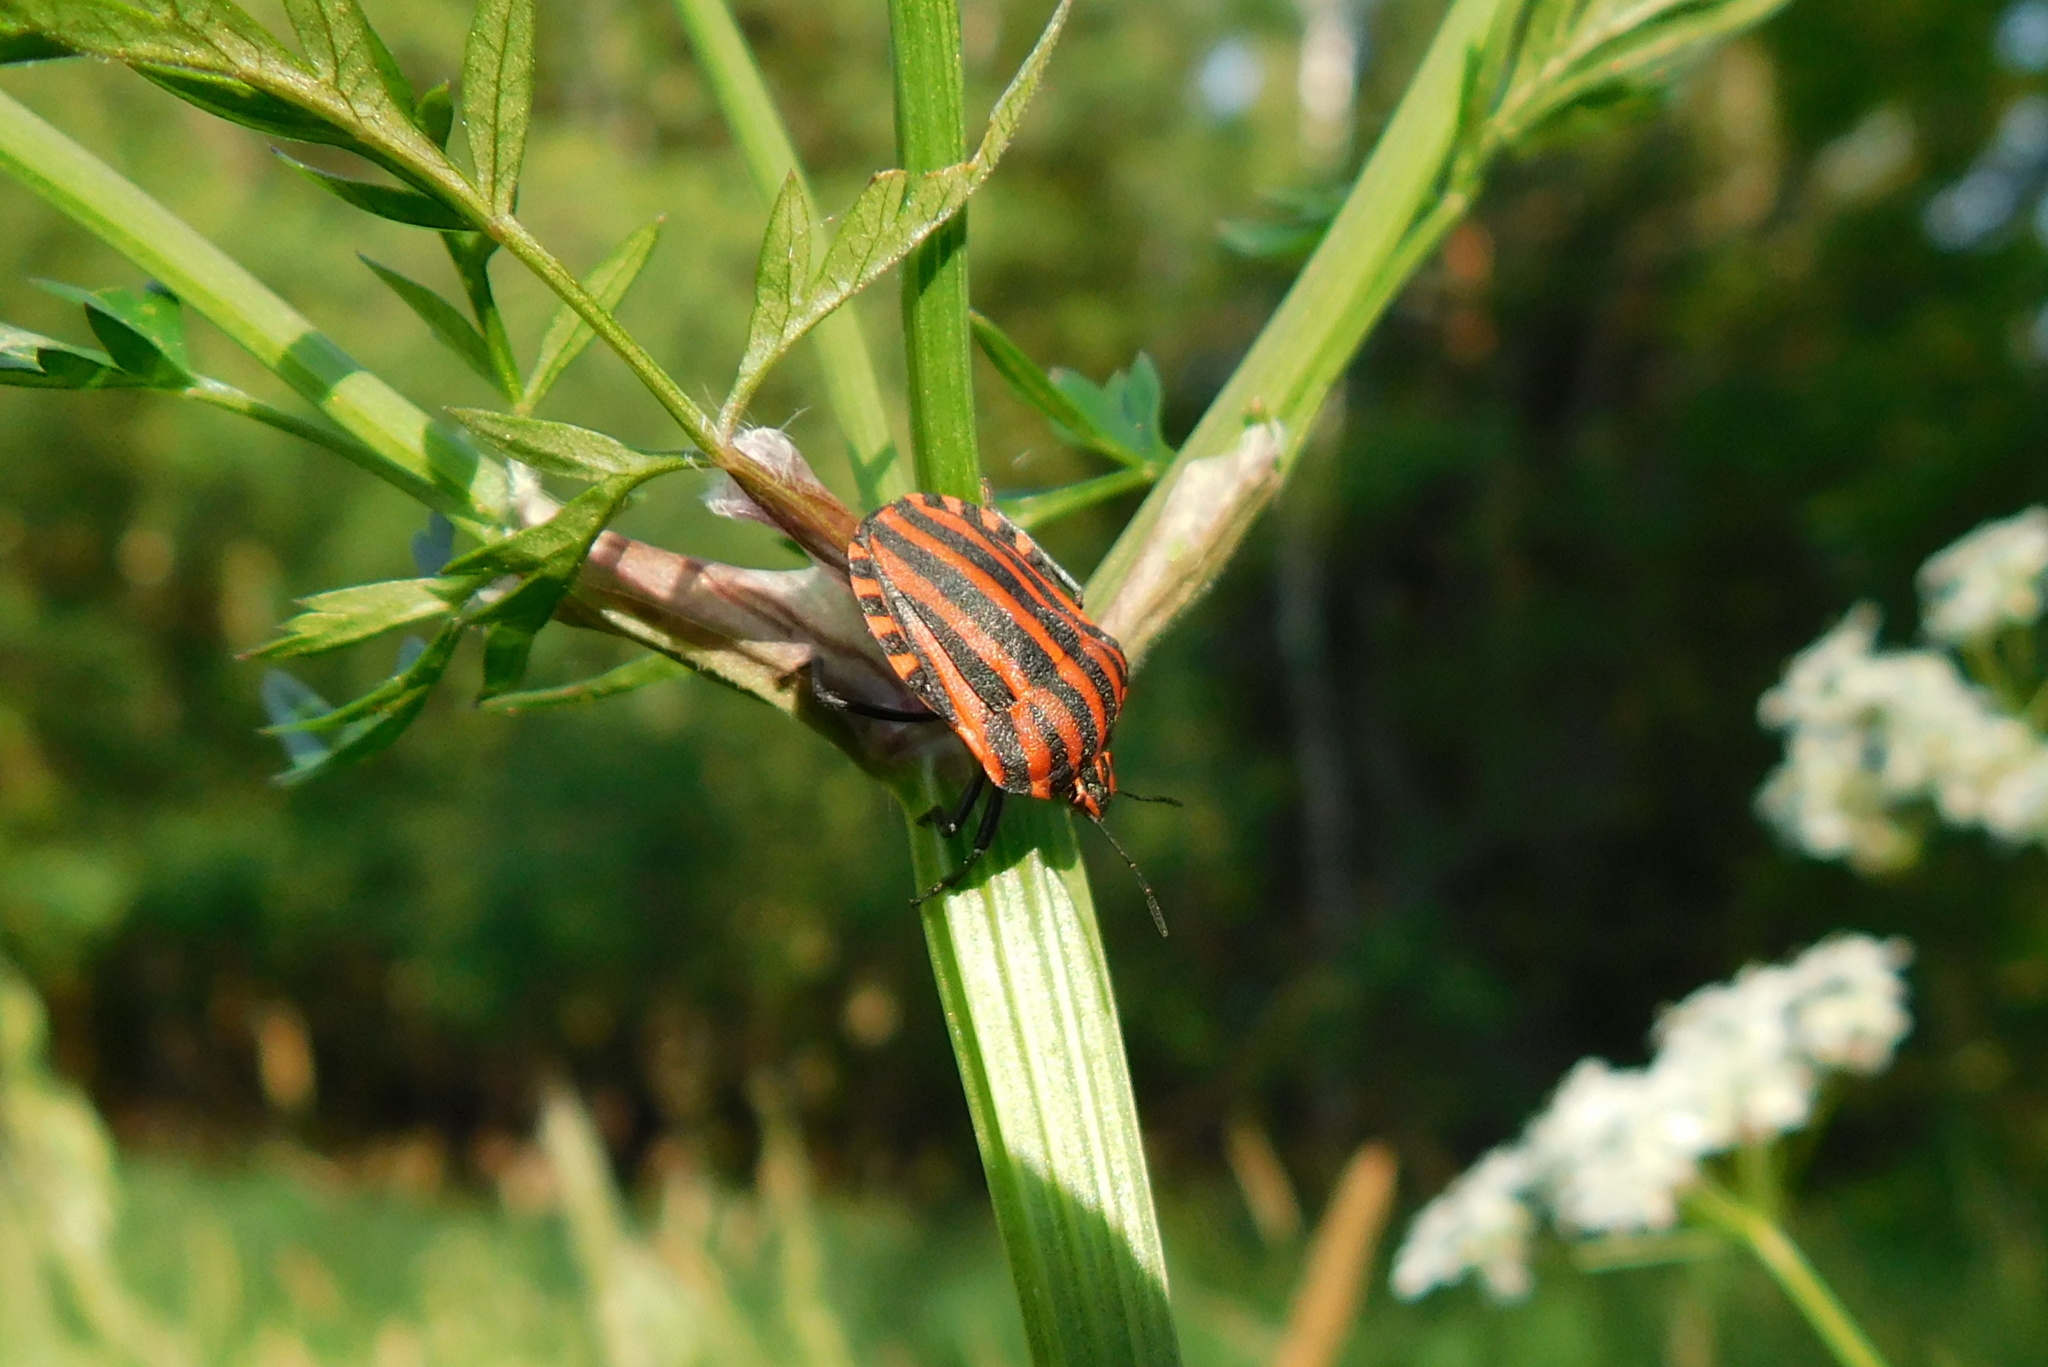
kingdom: Animalia
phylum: Arthropoda
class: Insecta
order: Hemiptera
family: Pentatomidae
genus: Graphosoma
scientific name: Graphosoma italicum
